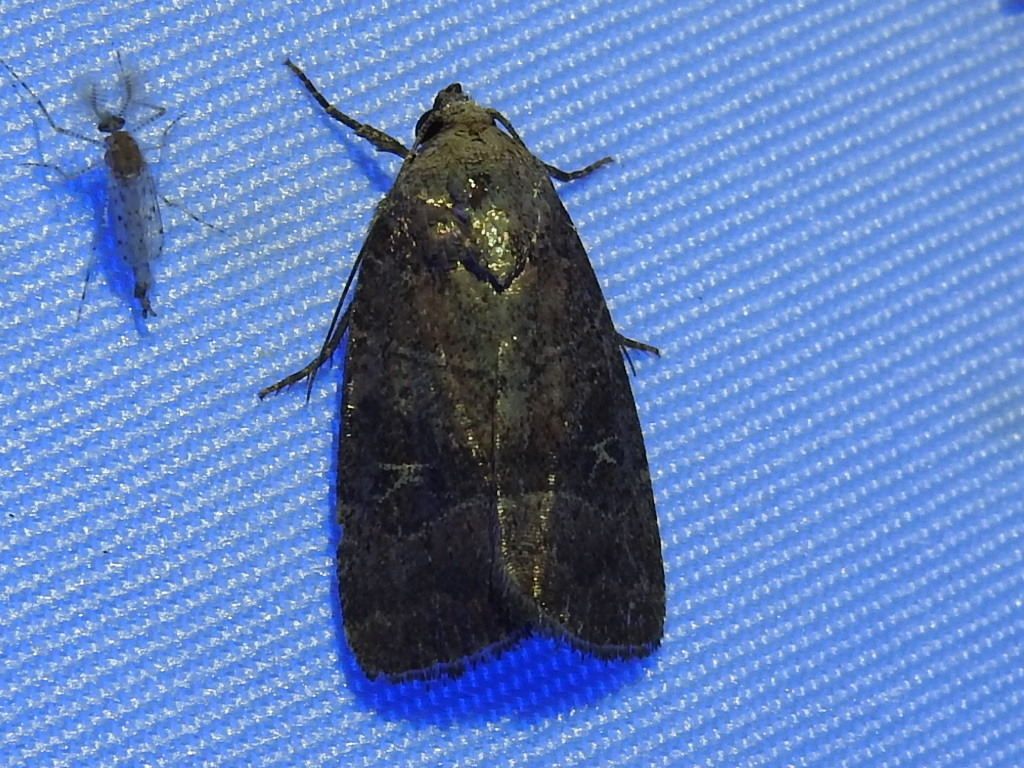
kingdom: Animalia
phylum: Arthropoda
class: Insecta
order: Lepidoptera
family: Noctuidae
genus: Elaphria
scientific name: Elaphria grata
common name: Grateful midget moth
